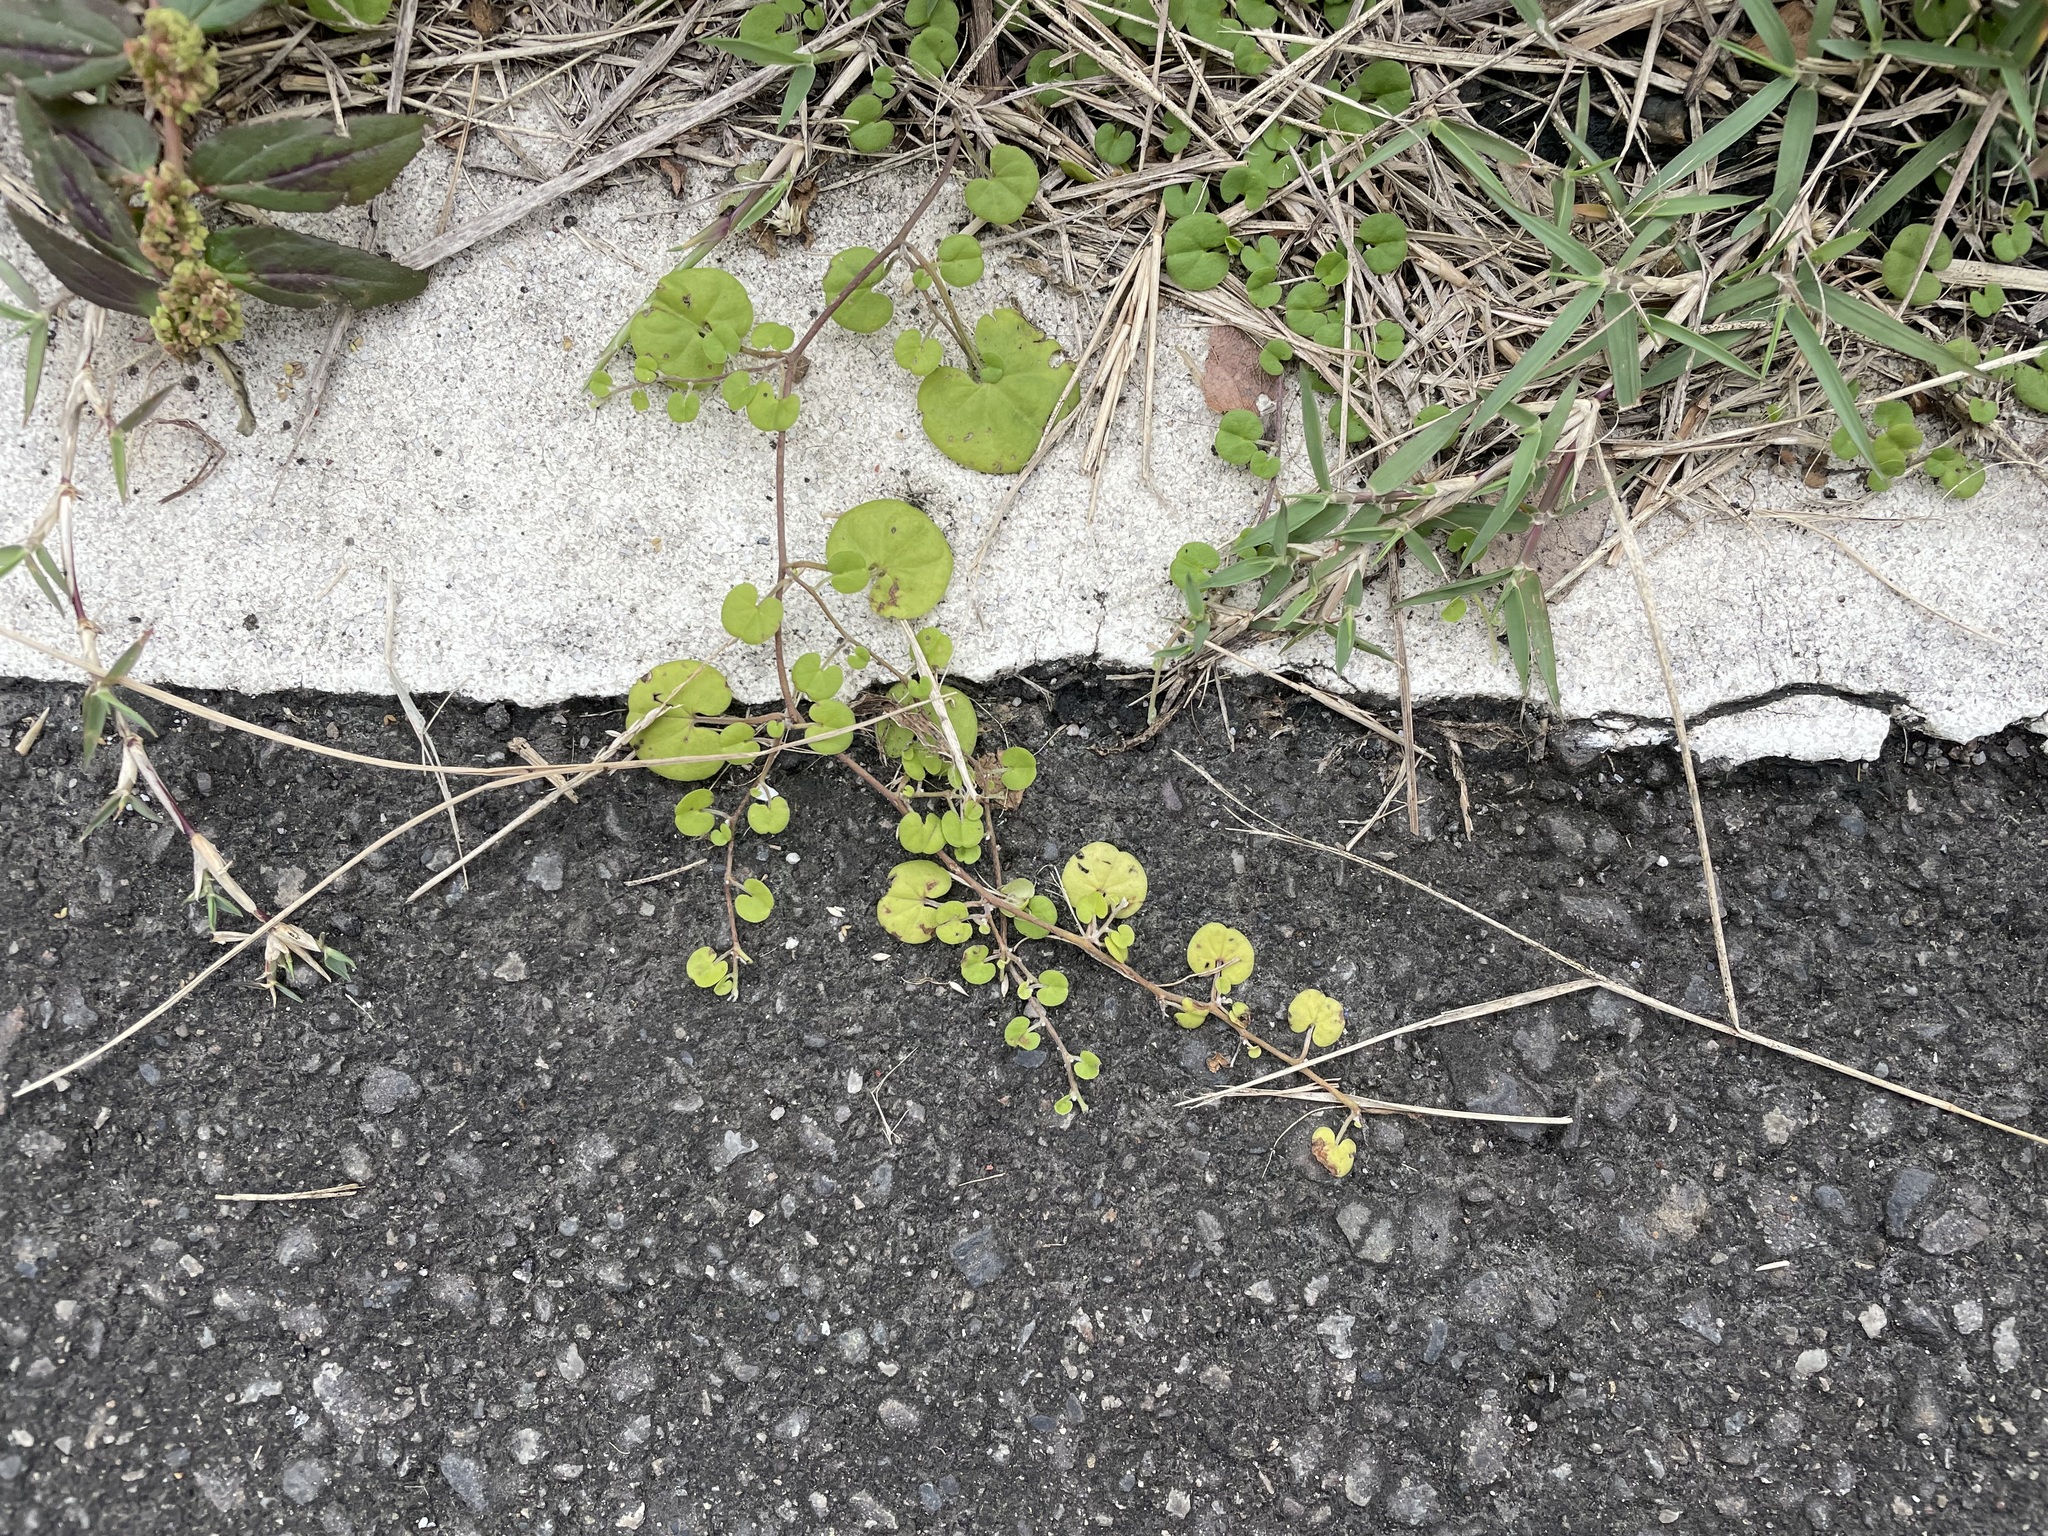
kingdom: Plantae
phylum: Tracheophyta
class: Magnoliopsida
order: Solanales
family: Convolvulaceae
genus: Dichondra
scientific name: Dichondra micrantha
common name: Kidneyweed
